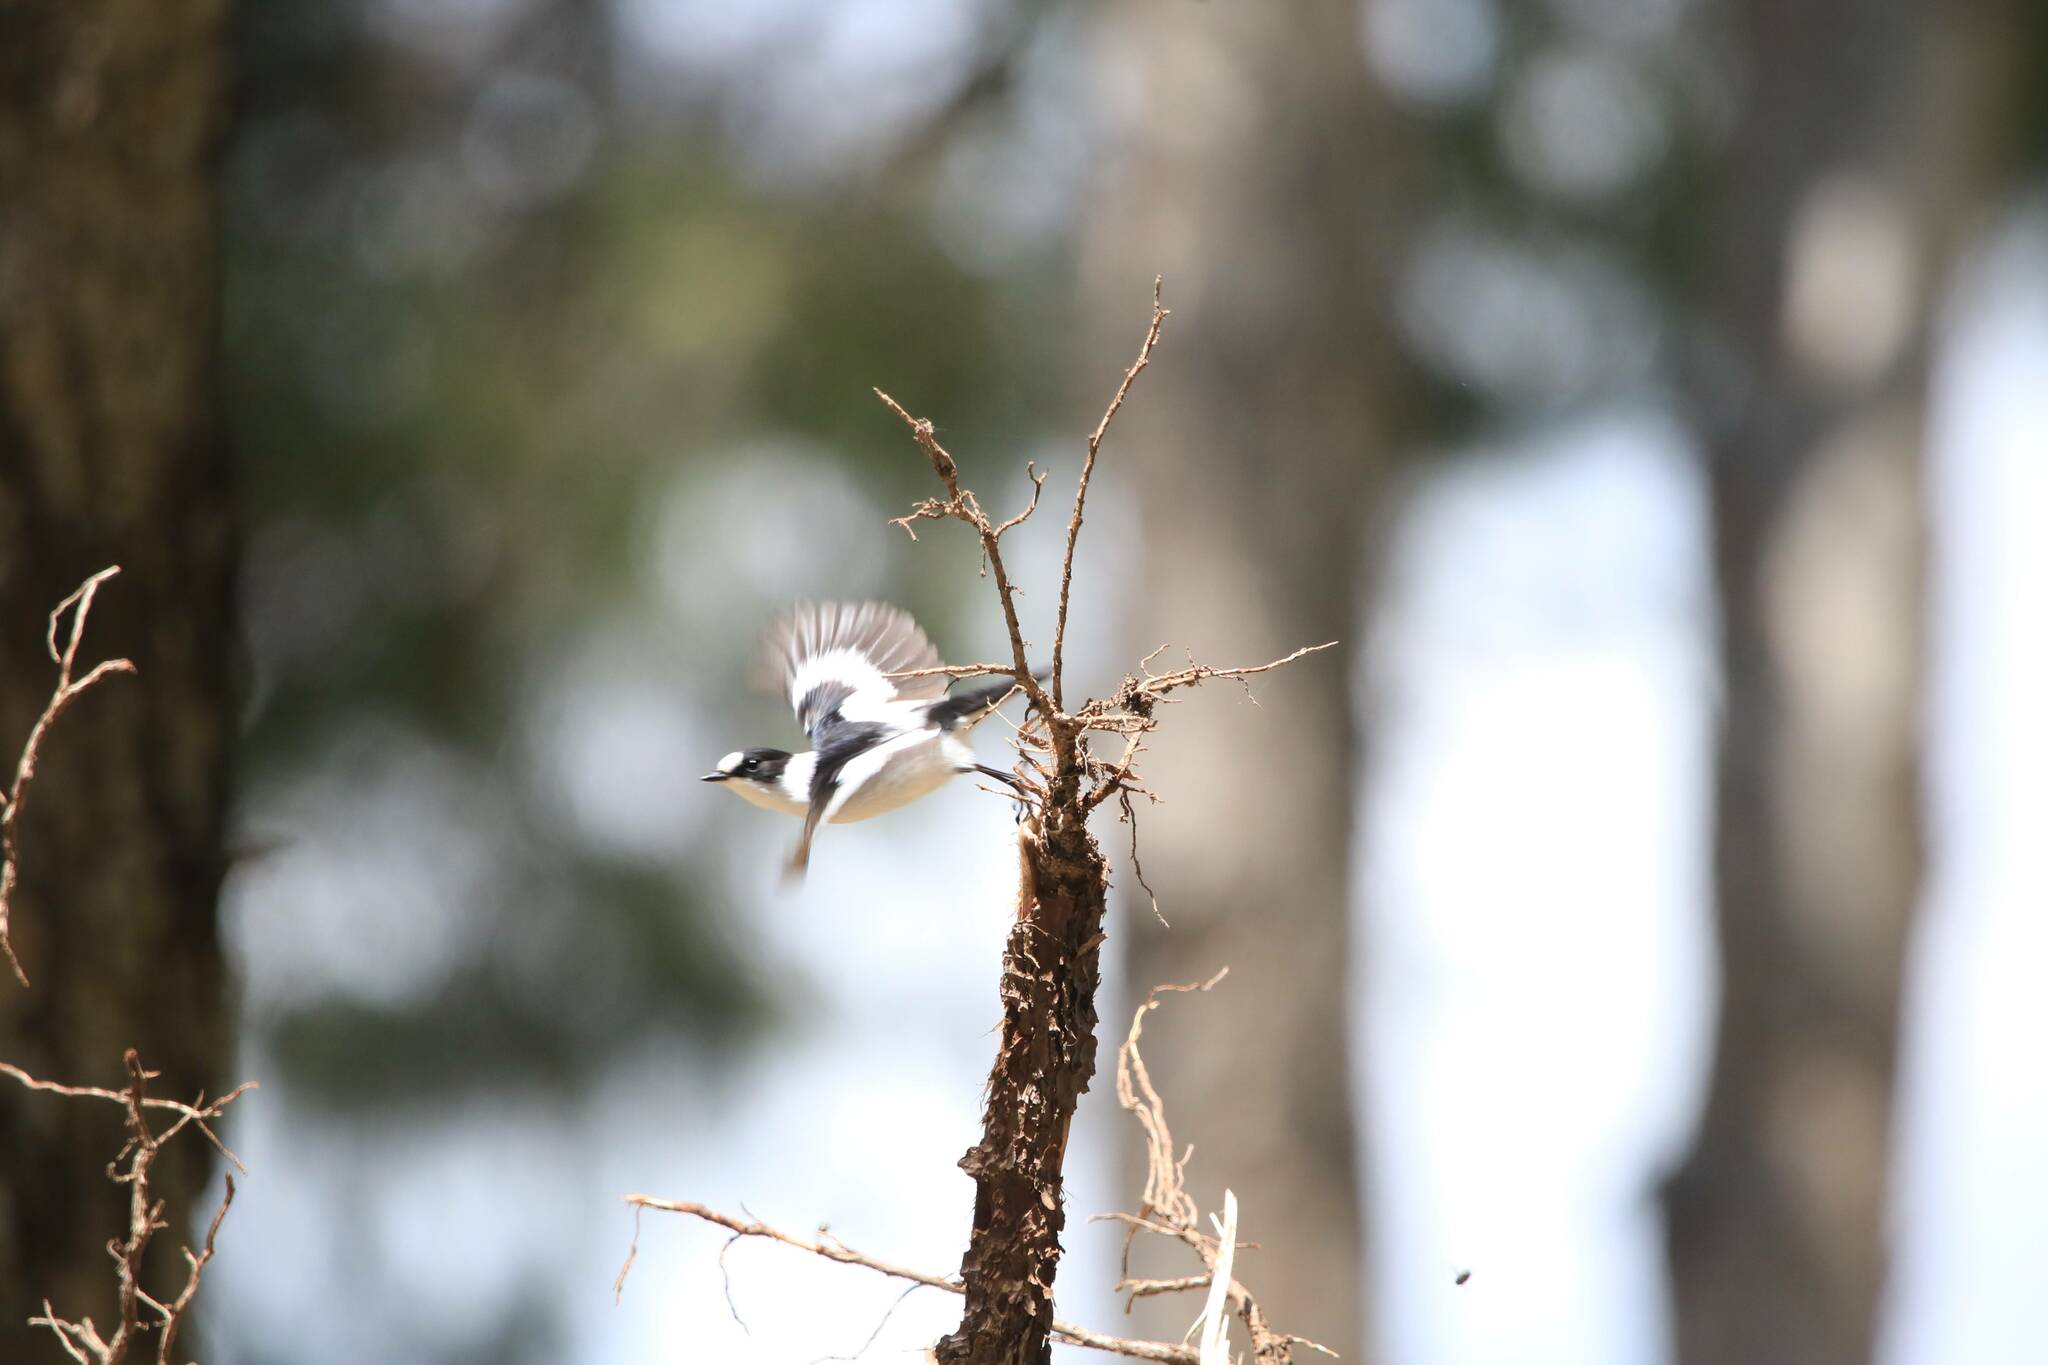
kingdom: Animalia
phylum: Chordata
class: Aves
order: Passeriformes
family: Muscicapidae
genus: Ficedula
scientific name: Ficedula albicollis
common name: Collared flycatcher
